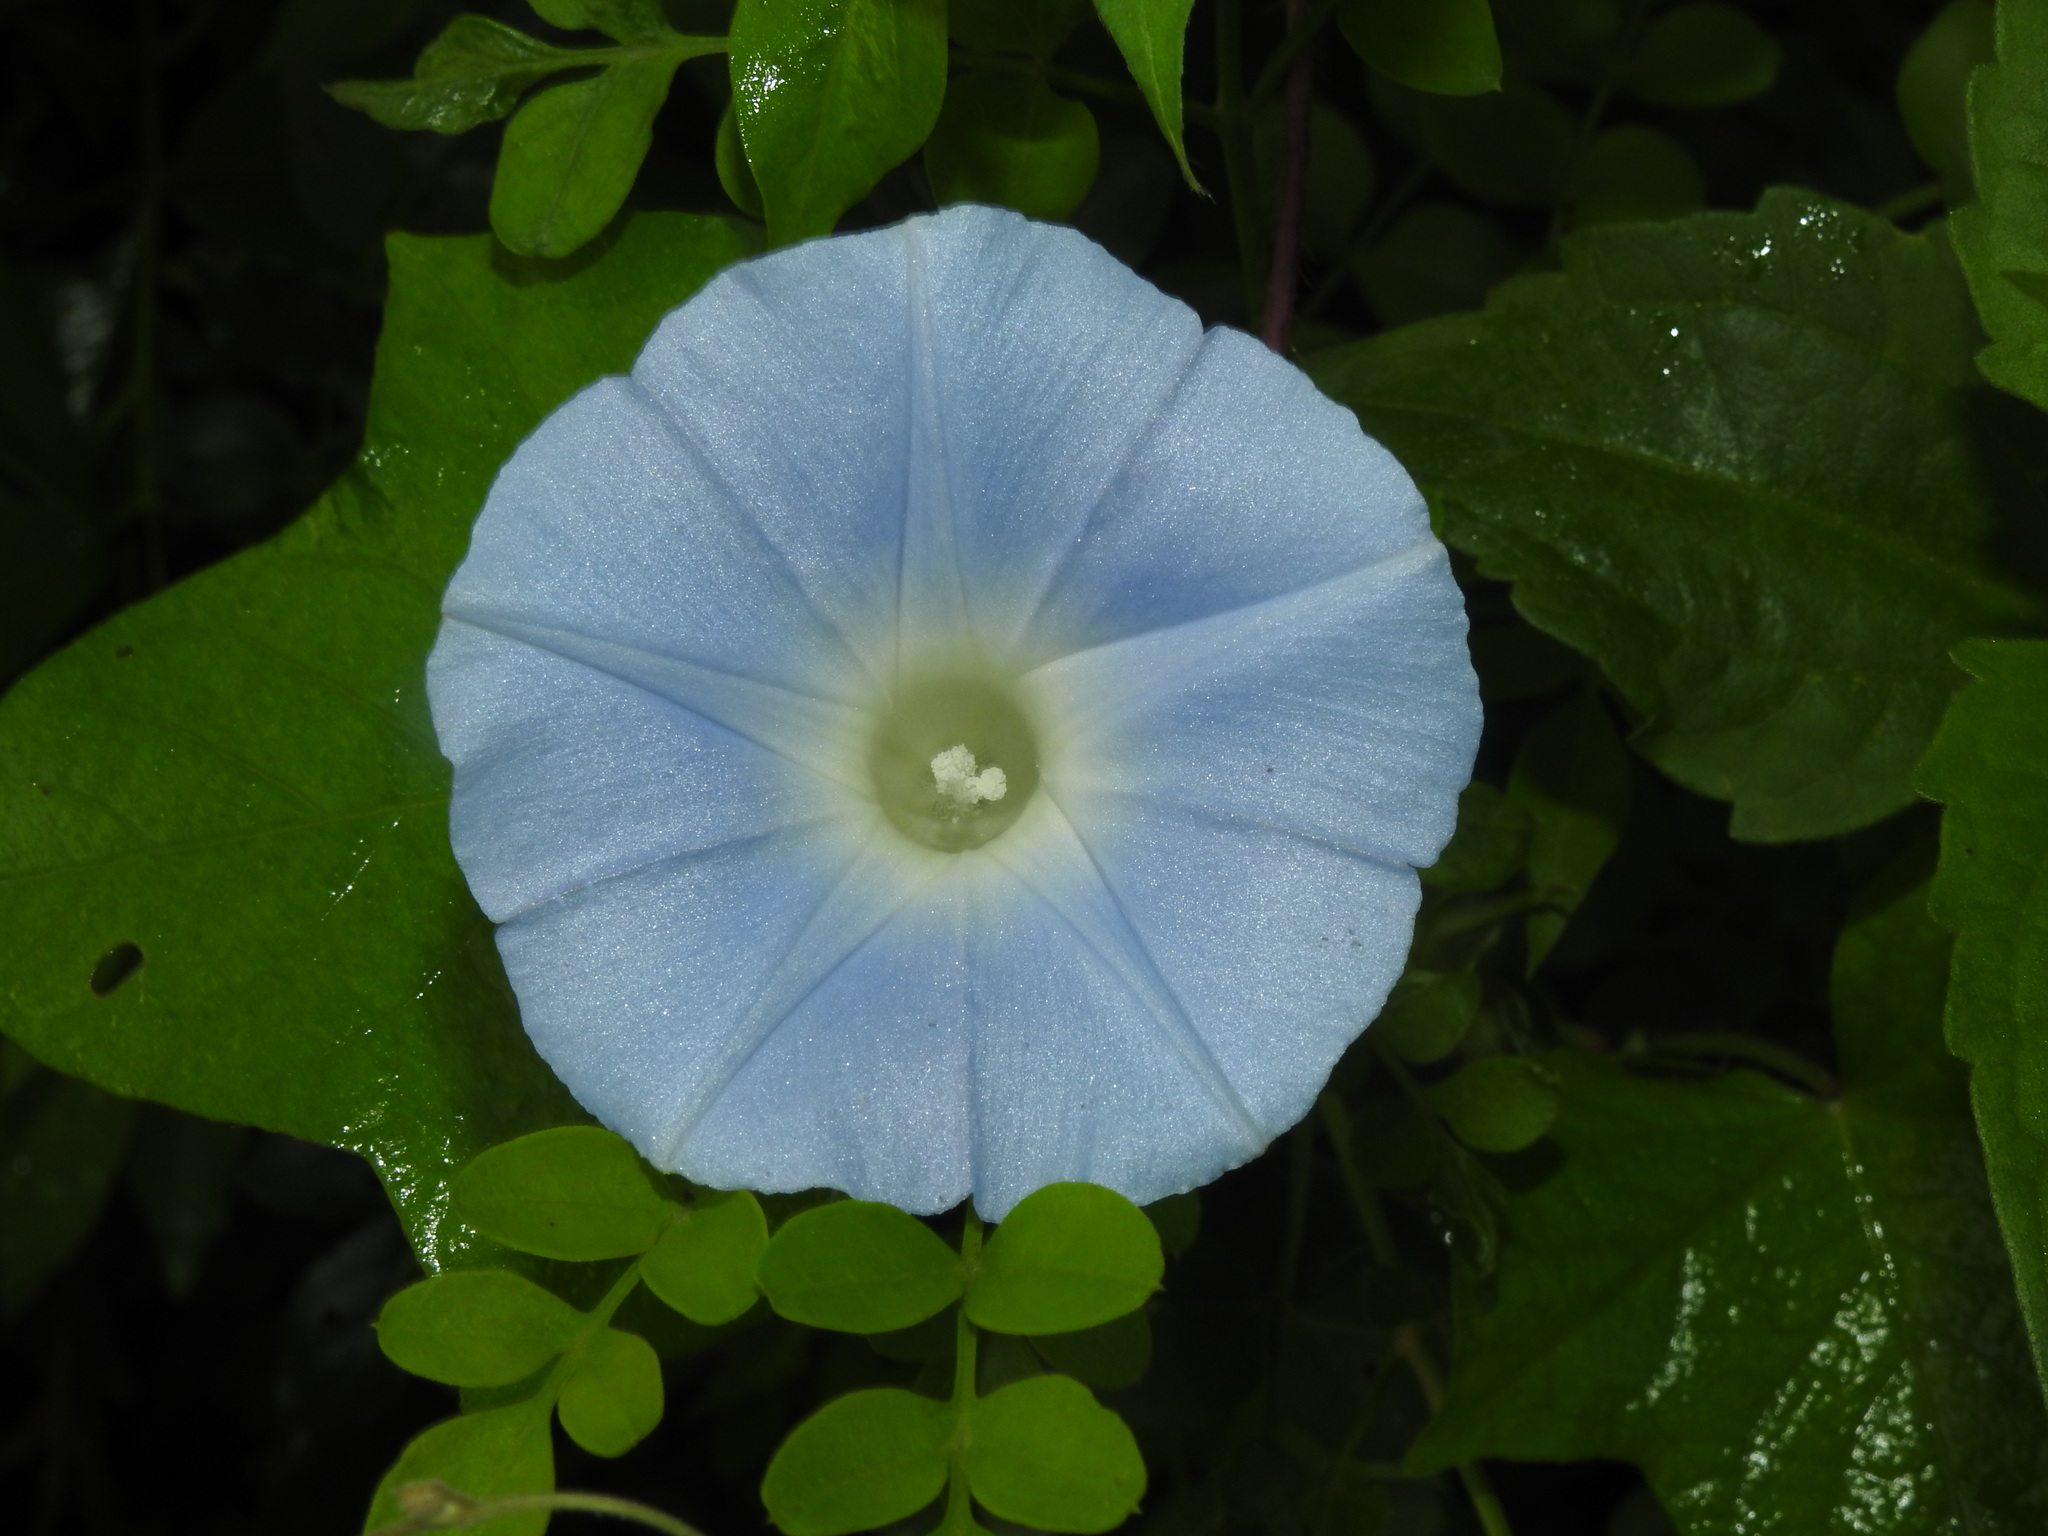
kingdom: Plantae
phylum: Tracheophyta
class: Magnoliopsida
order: Solanales
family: Convolvulaceae
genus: Ipomoea
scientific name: Ipomoea nil
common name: Japanese morning-glory
